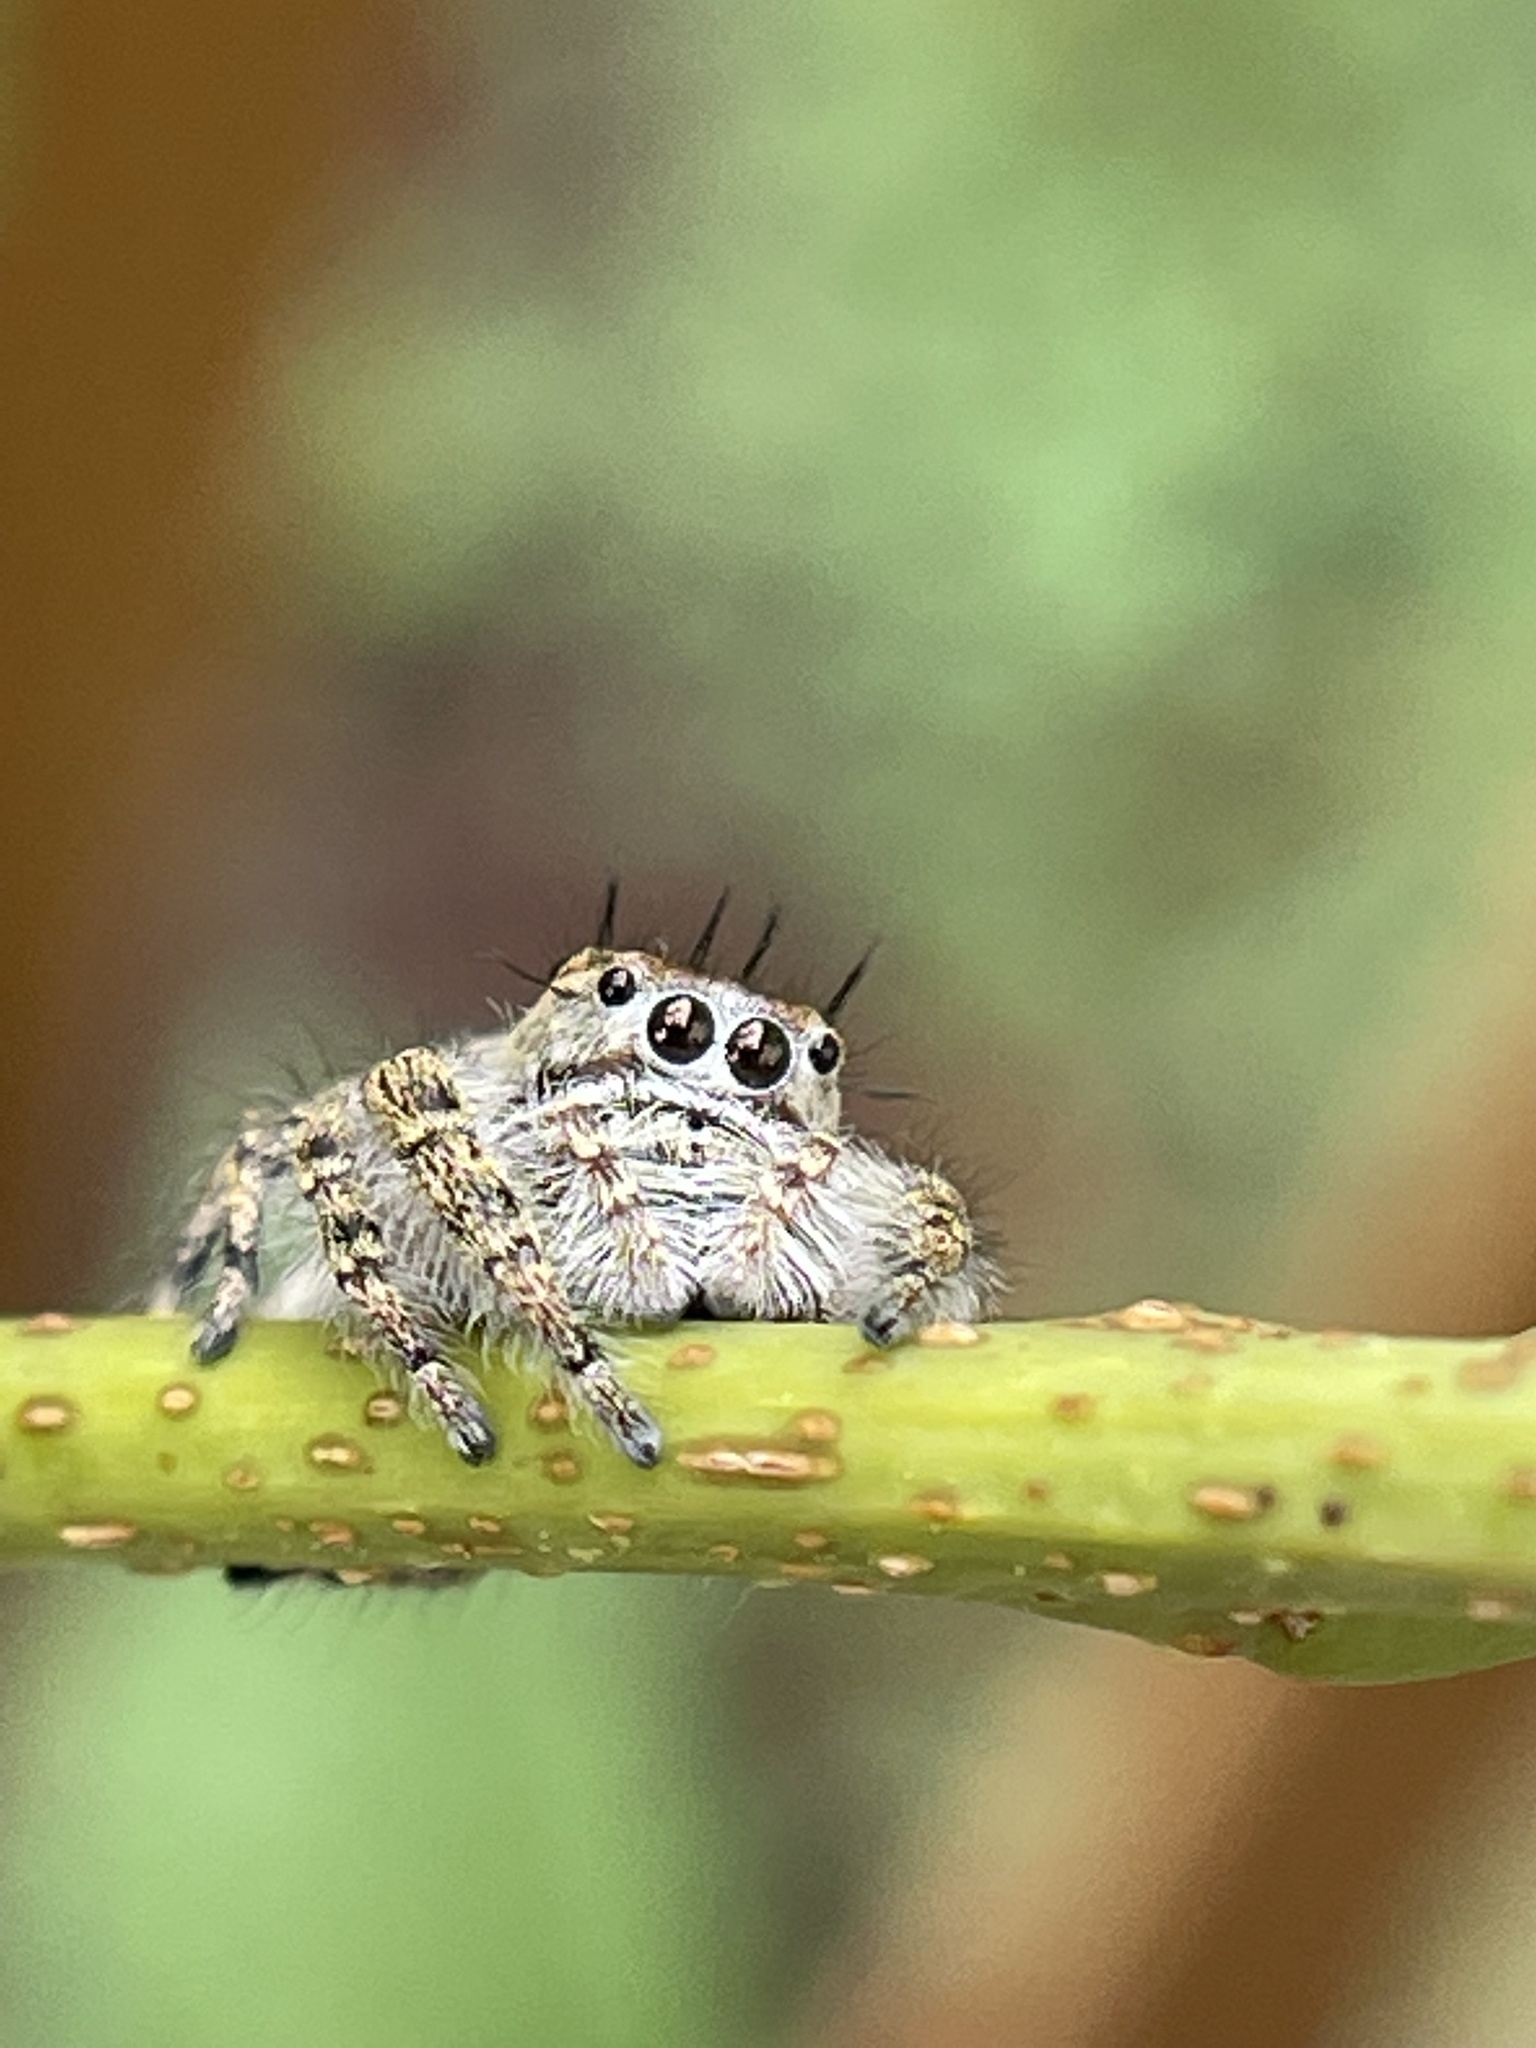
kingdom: Animalia
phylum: Arthropoda
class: Arachnida
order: Araneae
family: Salticidae
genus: Phidippus
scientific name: Phidippus putnami
